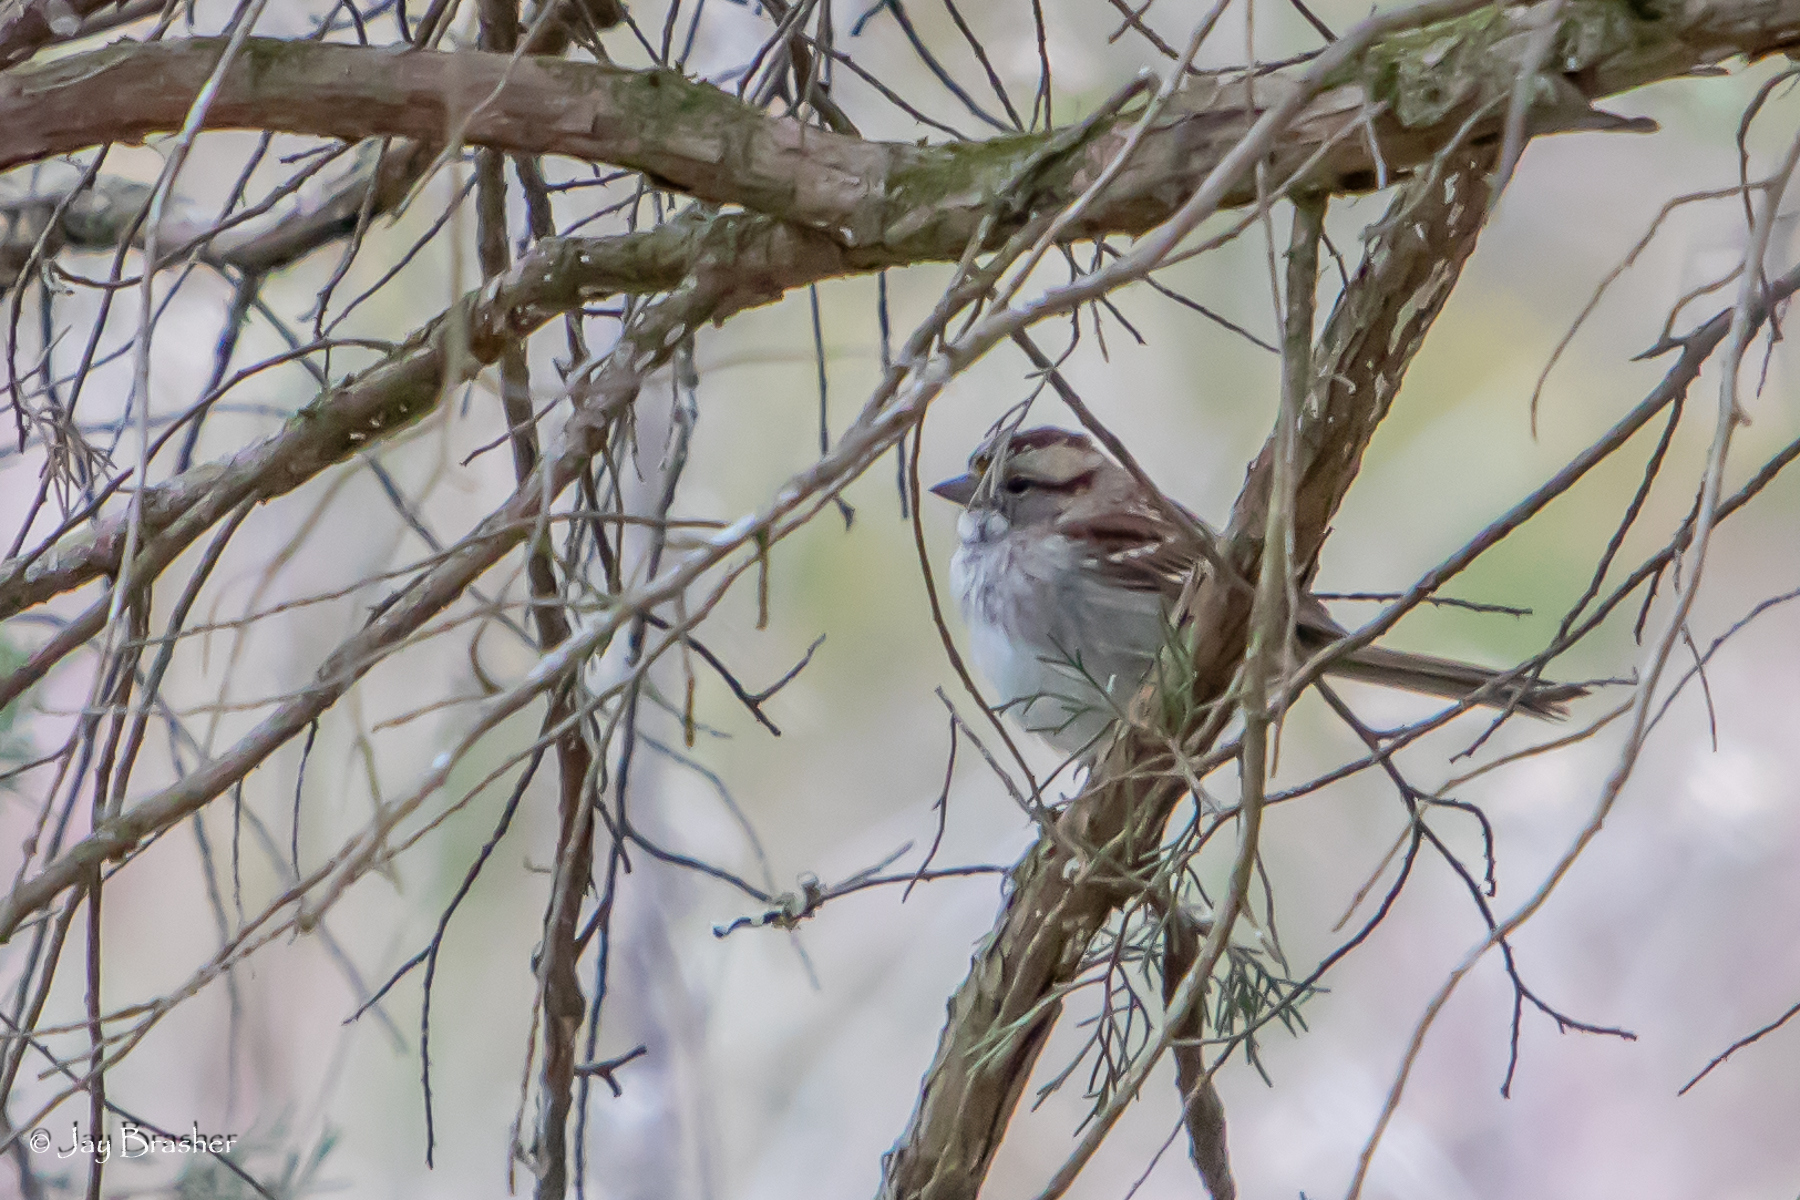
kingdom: Animalia
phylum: Chordata
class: Aves
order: Passeriformes
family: Passerellidae
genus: Zonotrichia
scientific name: Zonotrichia albicollis
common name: White-throated sparrow
